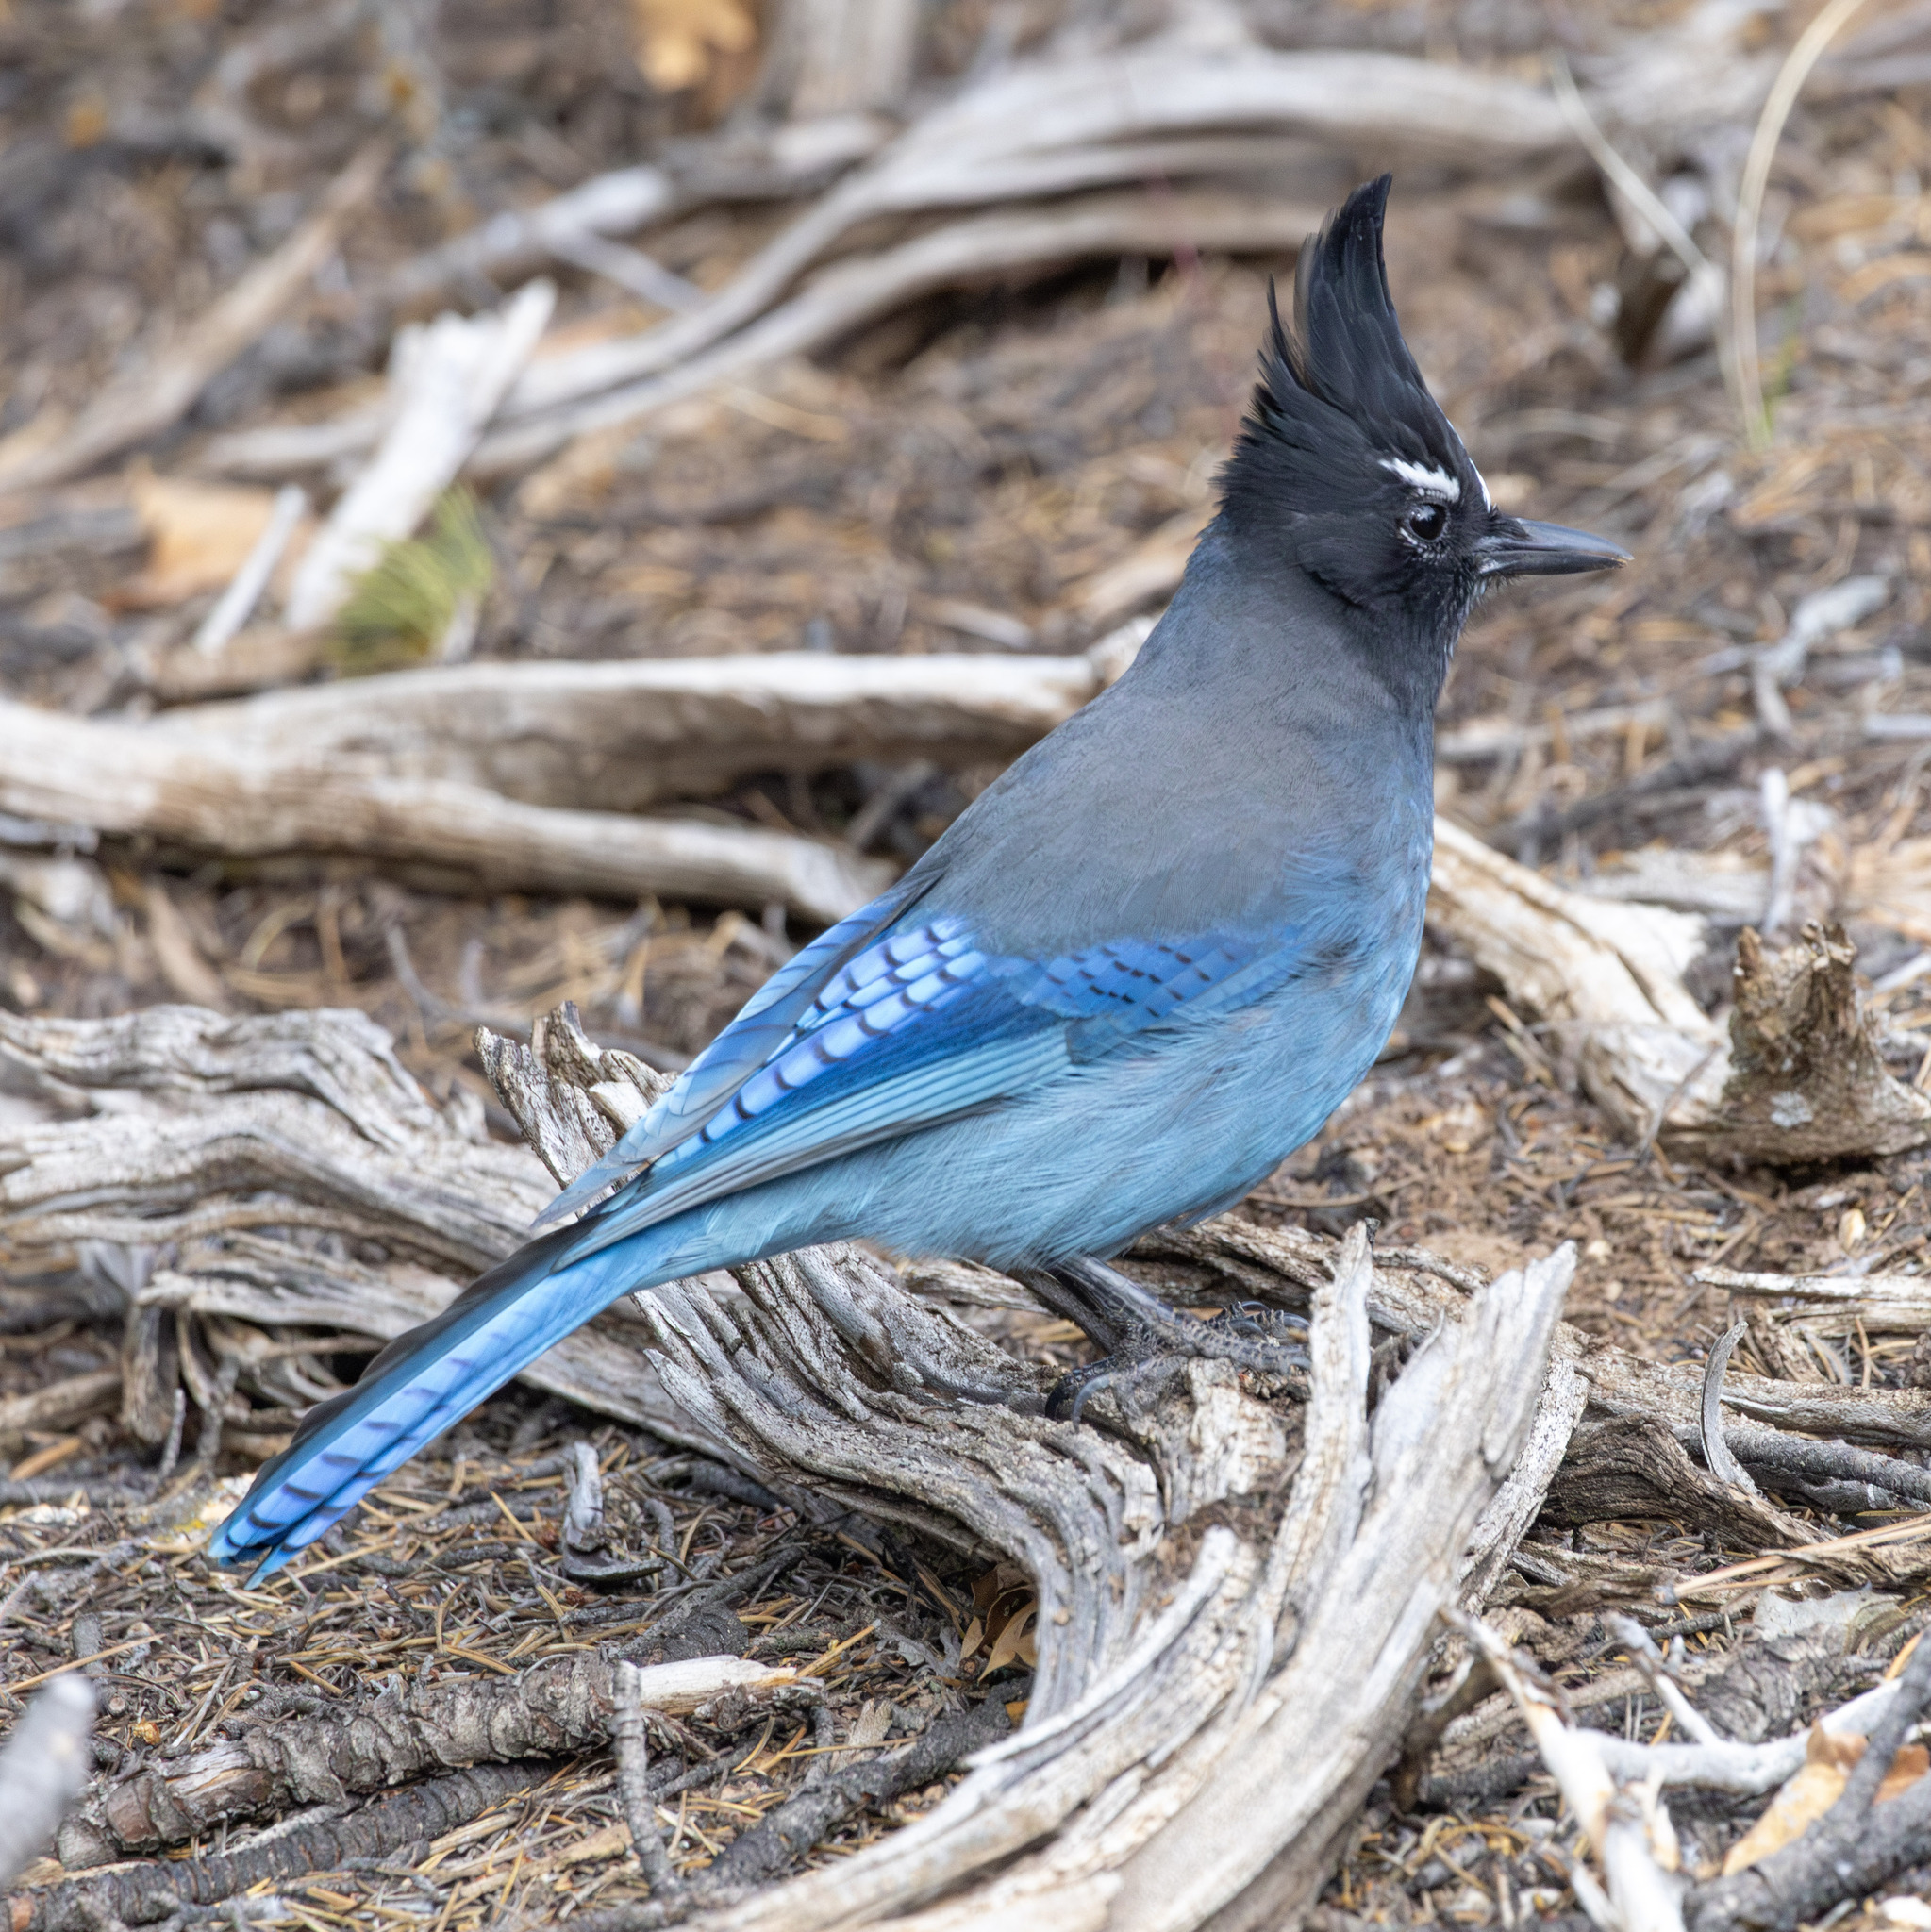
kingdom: Animalia
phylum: Chordata
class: Aves
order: Passeriformes
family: Corvidae
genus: Cyanocitta
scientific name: Cyanocitta stelleri
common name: Steller's jay
